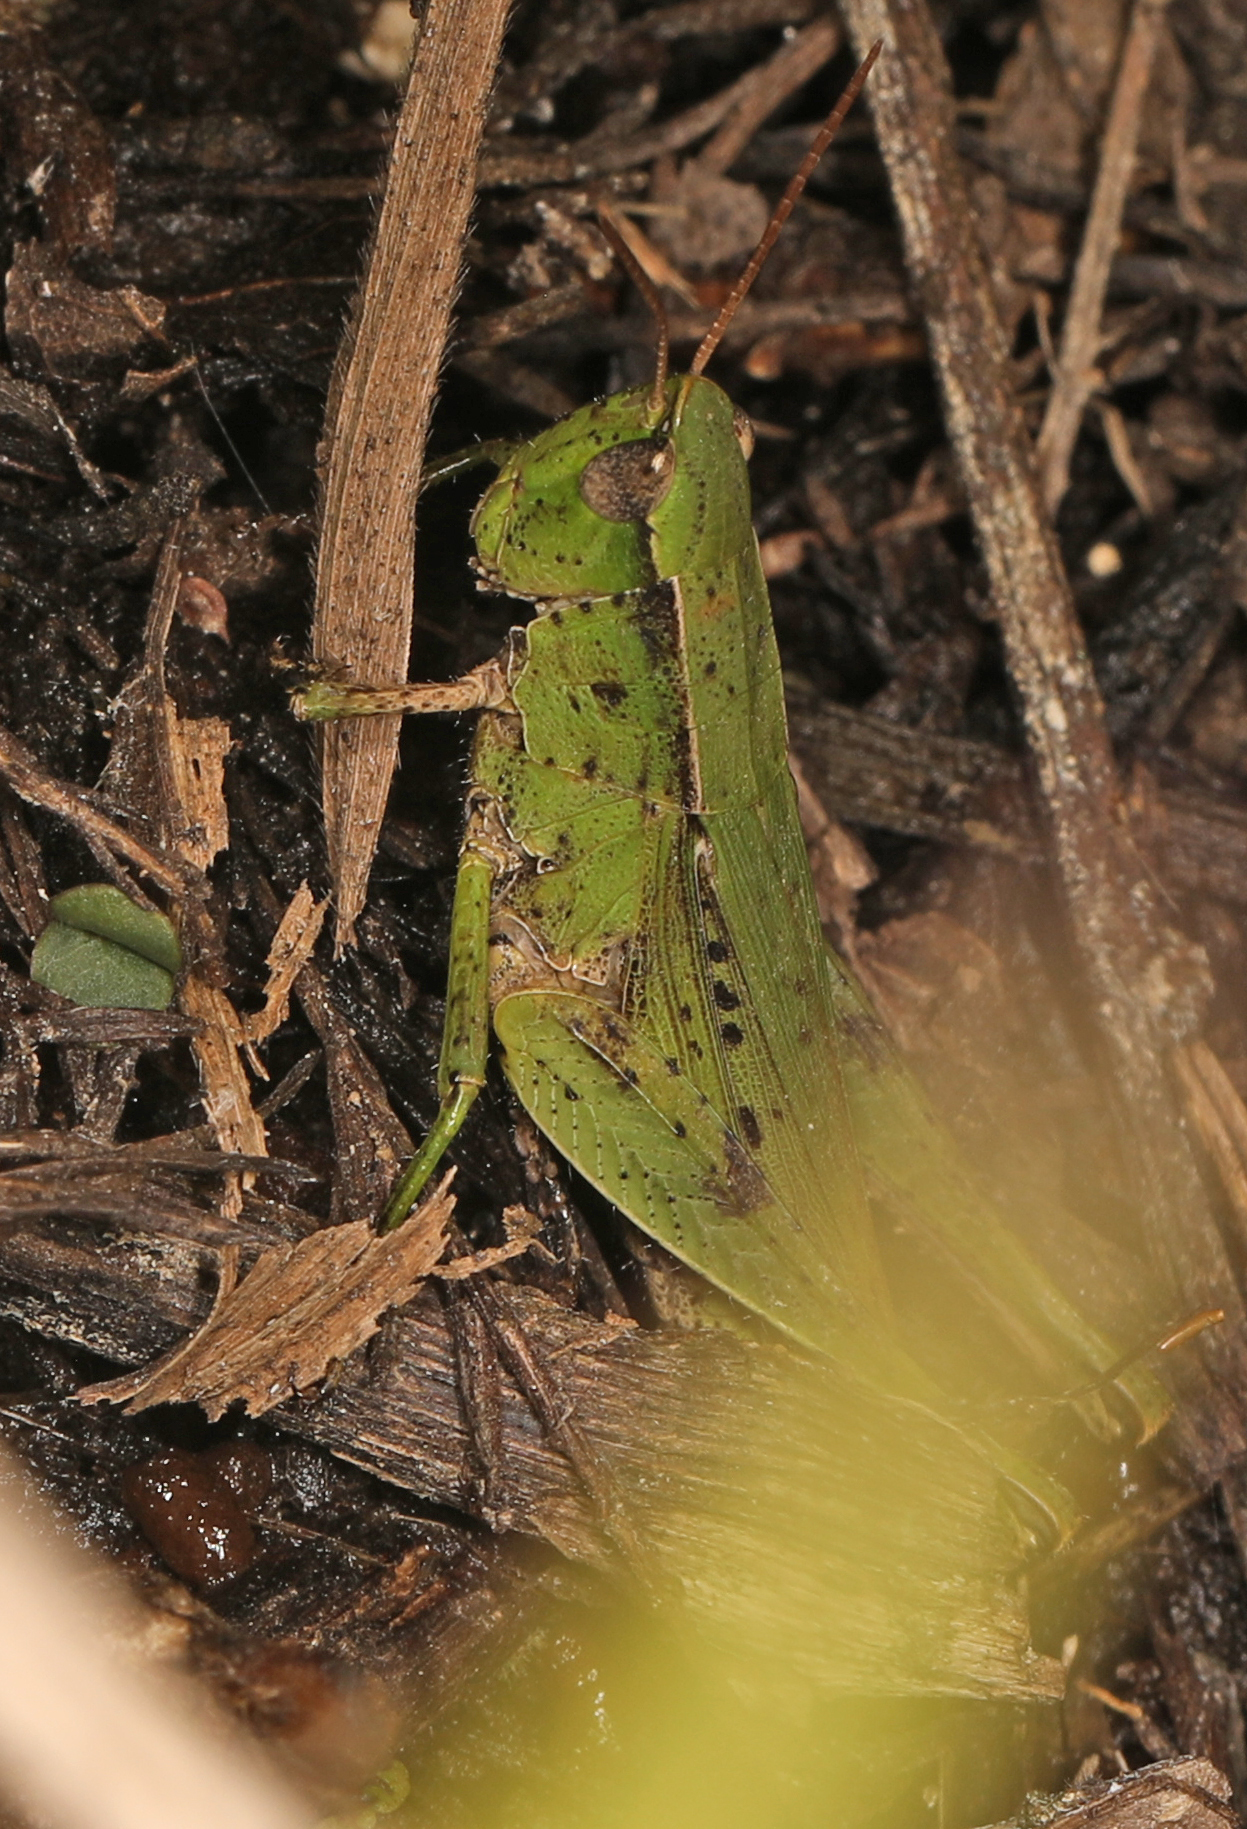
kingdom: Animalia
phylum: Arthropoda
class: Insecta
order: Orthoptera
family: Acrididae
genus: Dichromorpha
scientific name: Dichromorpha viridis
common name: Short-winged green grasshopper
